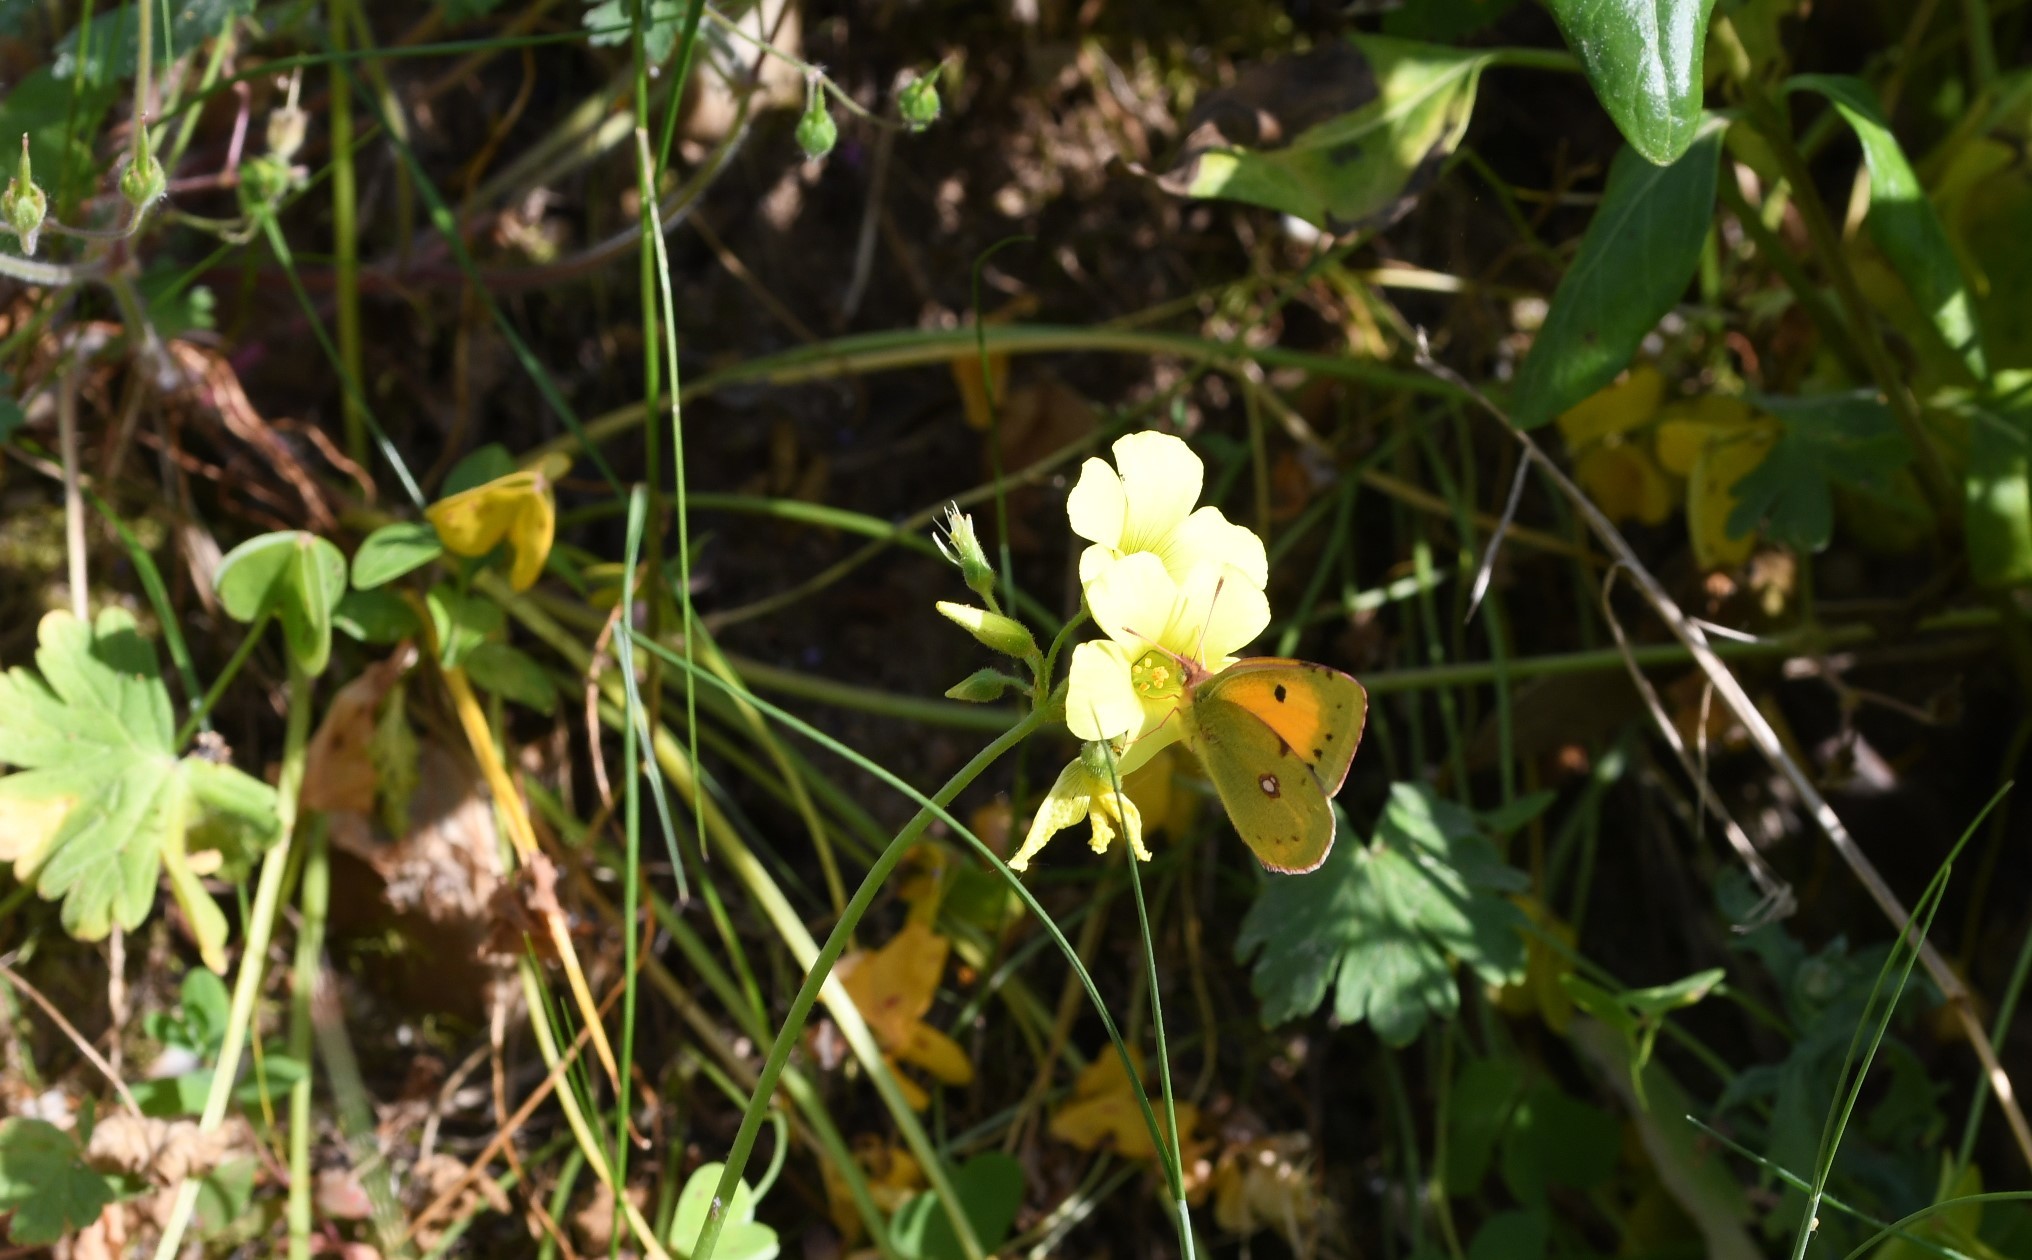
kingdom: Animalia
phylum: Arthropoda
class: Insecta
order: Lepidoptera
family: Pieridae
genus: Colias
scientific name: Colias croceus
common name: Clouded yellow
